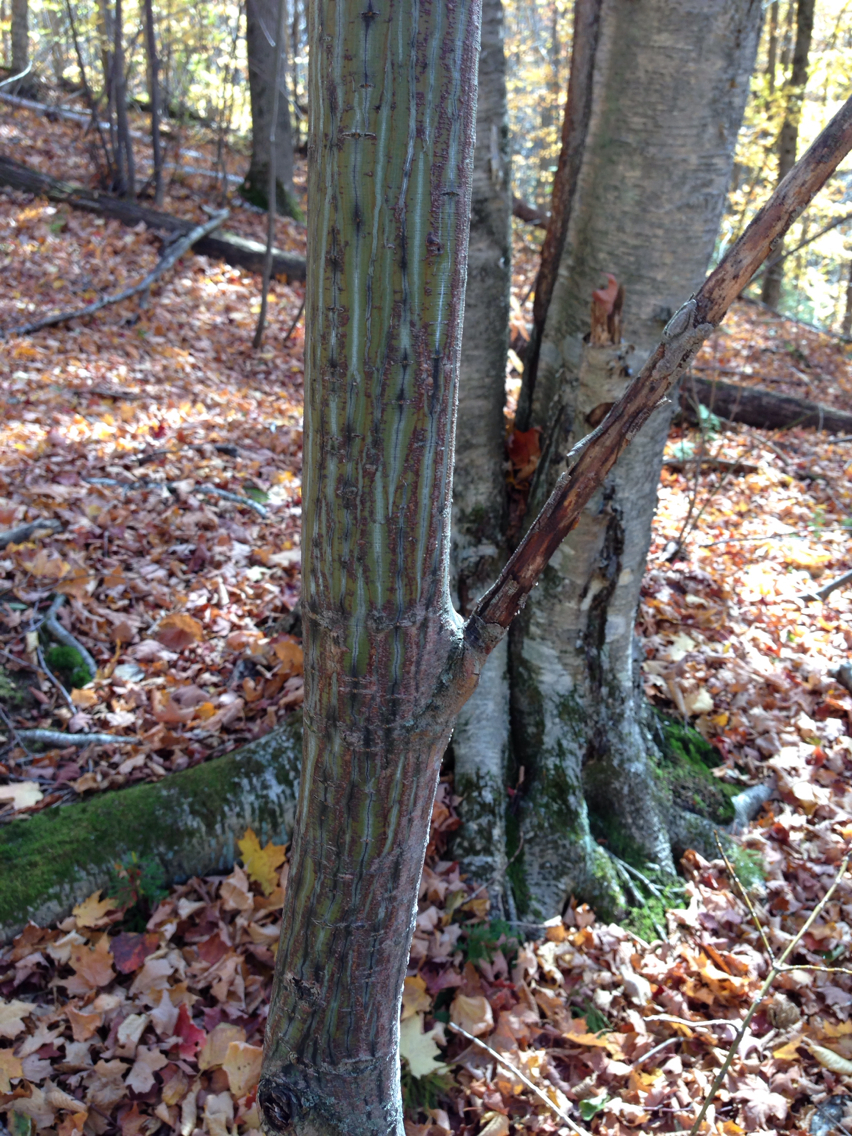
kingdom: Plantae
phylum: Tracheophyta
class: Magnoliopsida
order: Sapindales
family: Sapindaceae
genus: Acer
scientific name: Acer pensylvanicum
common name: Moosewood
